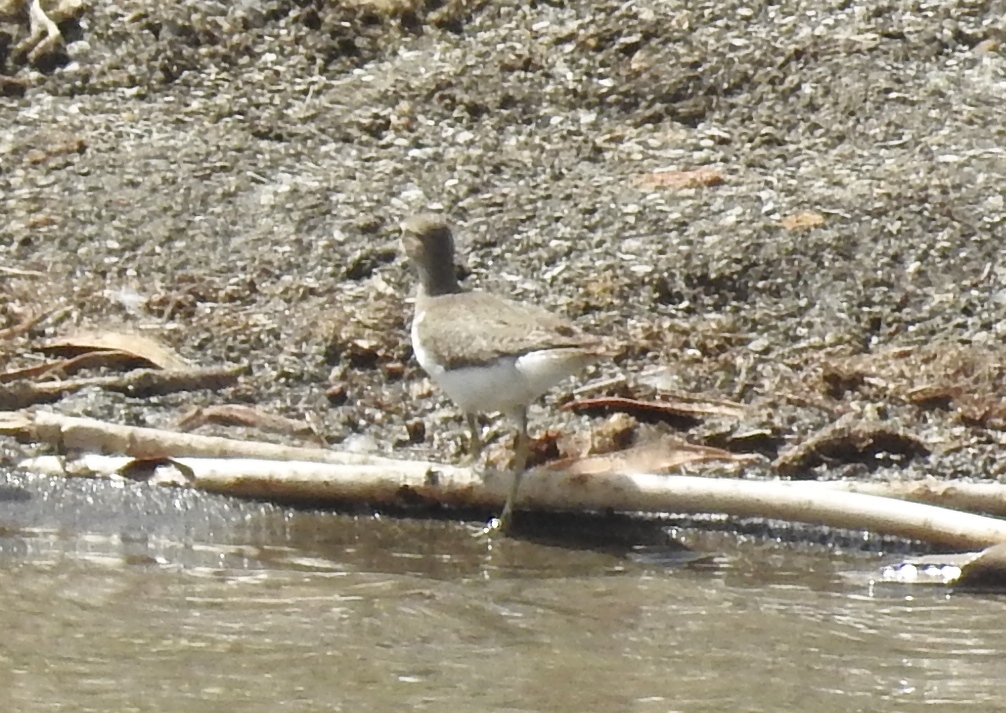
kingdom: Animalia
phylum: Chordata
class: Aves
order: Charadriiformes
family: Scolopacidae
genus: Actitis
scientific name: Actitis hypoleucos
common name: Common sandpiper
